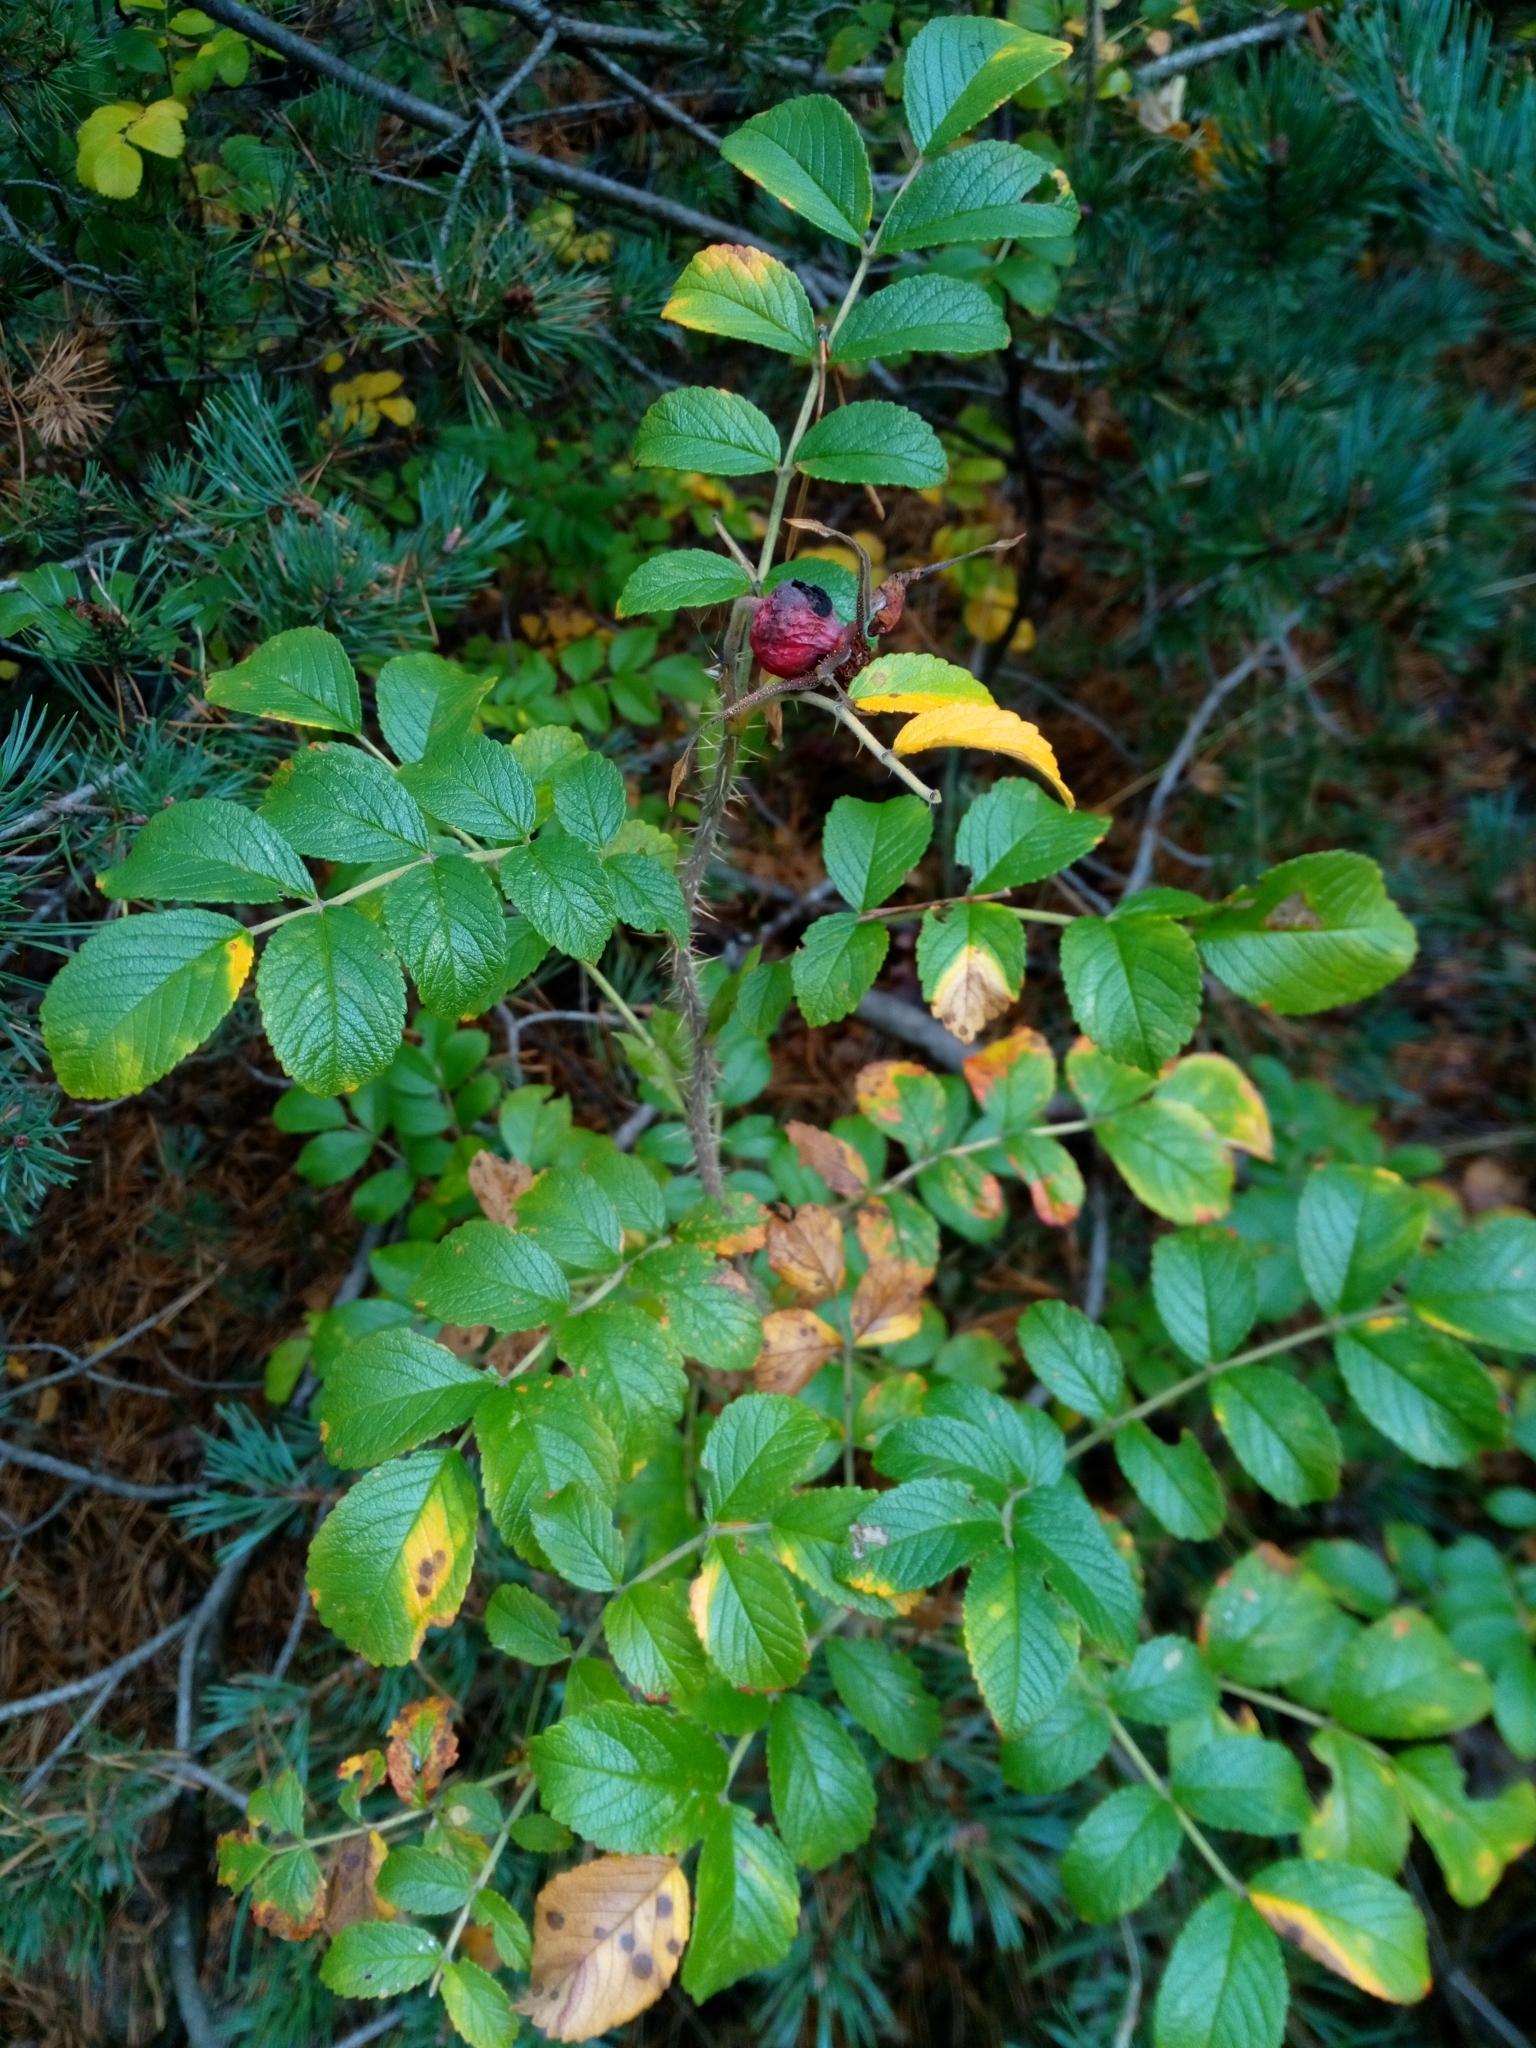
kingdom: Plantae
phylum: Tracheophyta
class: Magnoliopsida
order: Rosales
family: Rosaceae
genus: Rosa
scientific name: Rosa rugosa
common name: Japanese rose
